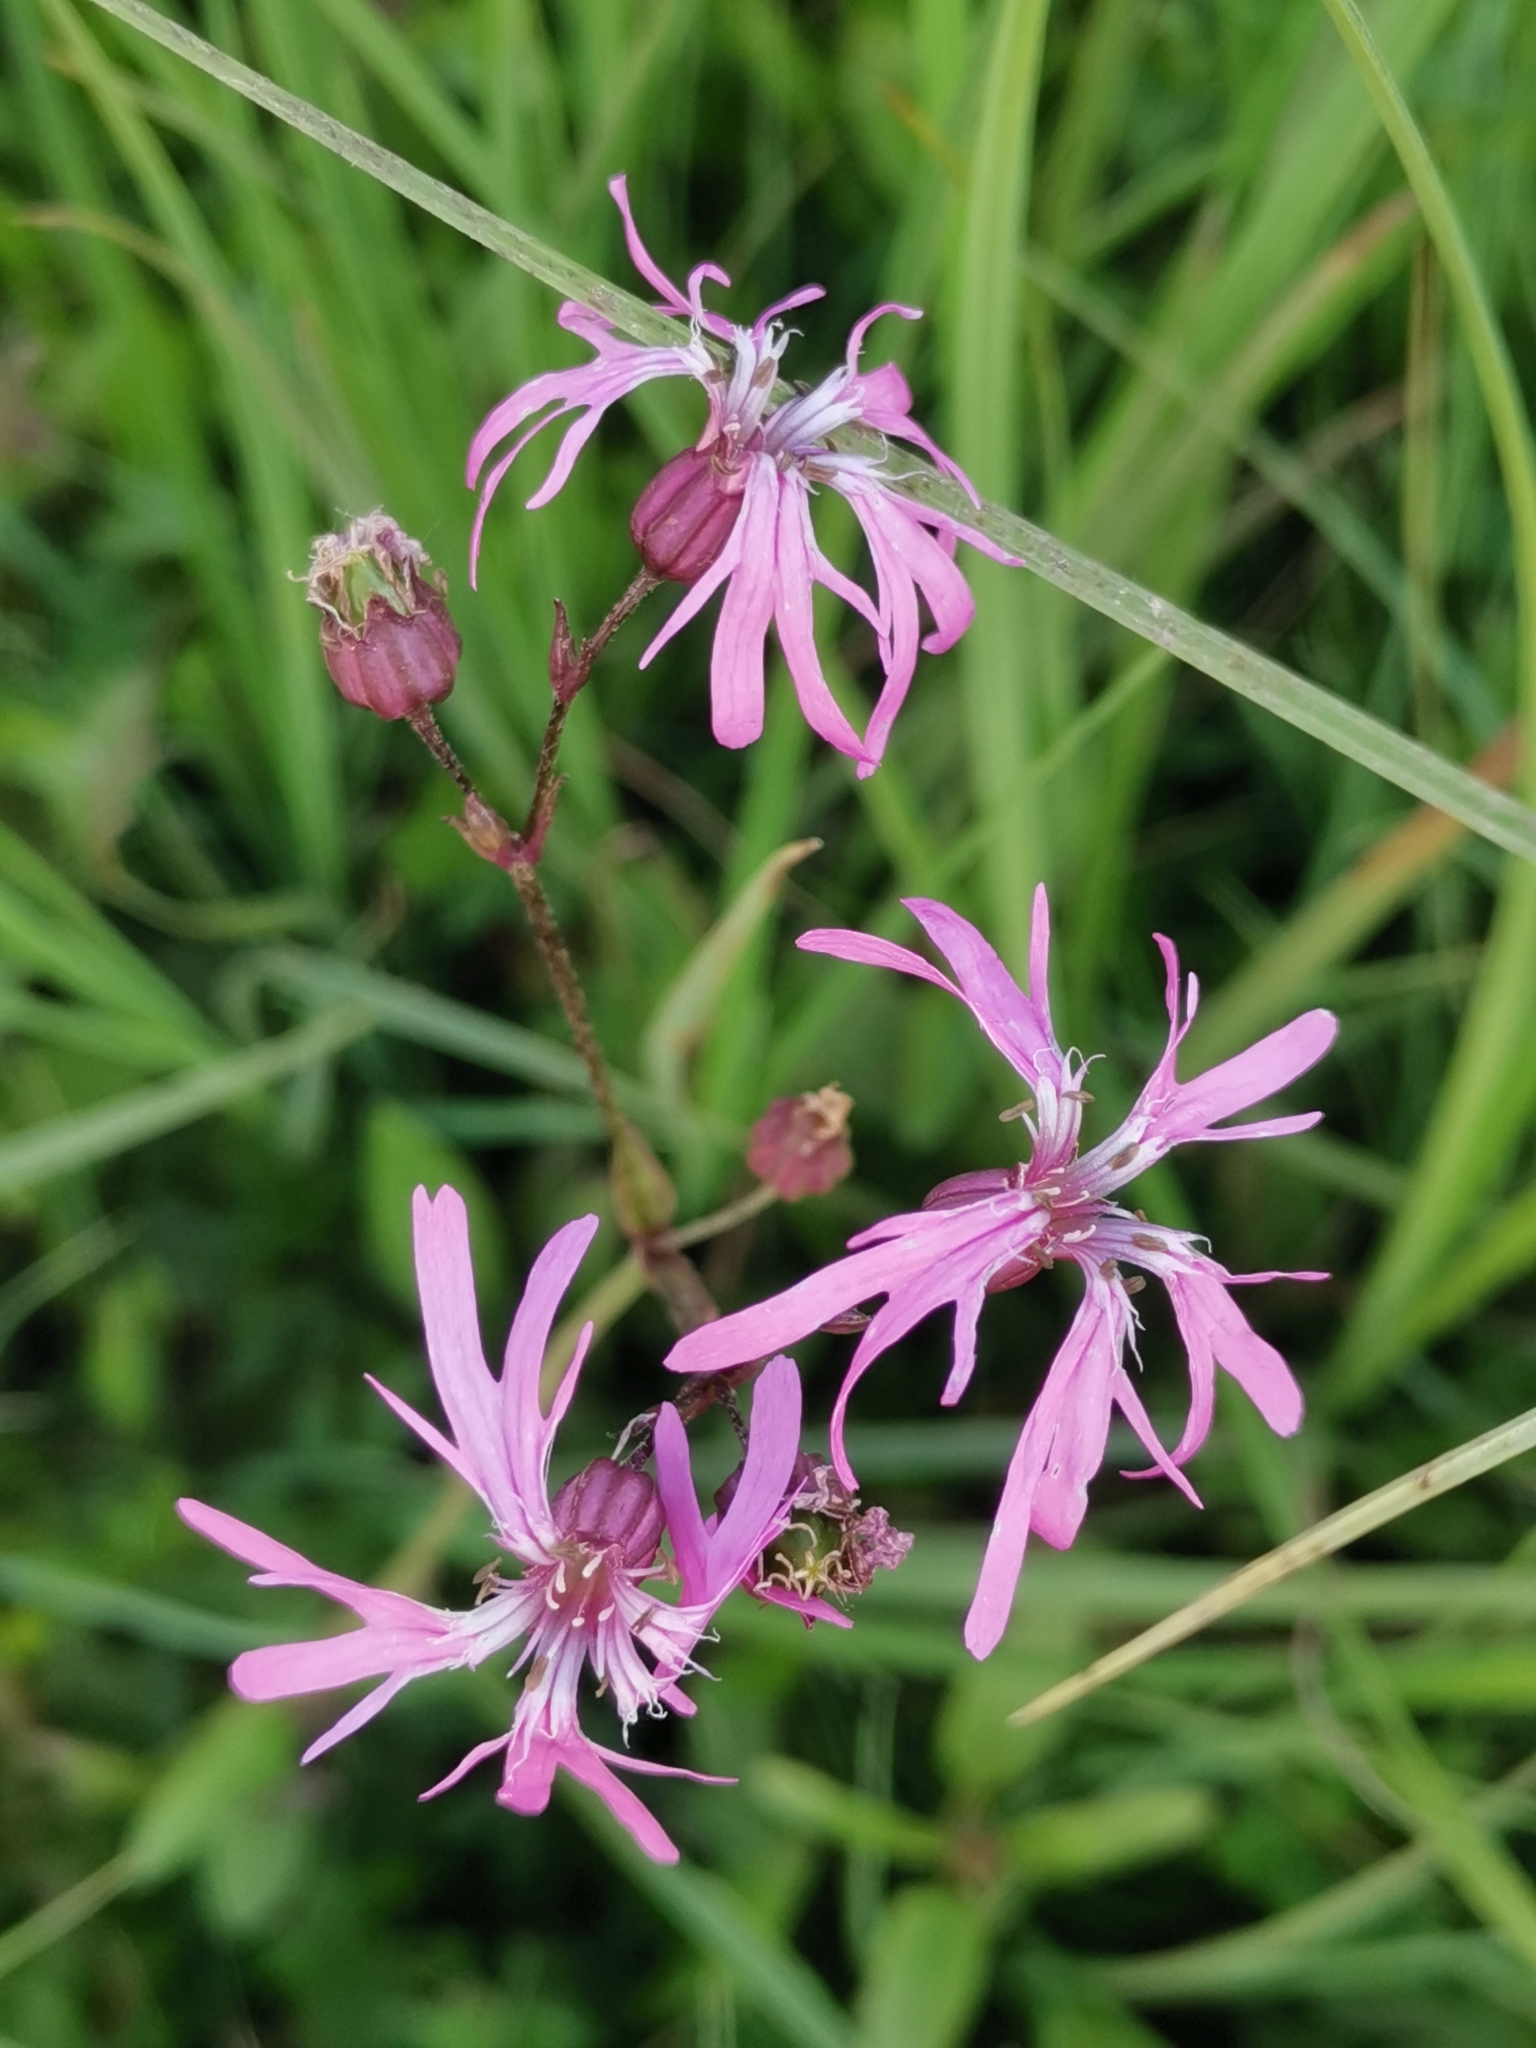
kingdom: Plantae
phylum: Tracheophyta
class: Magnoliopsida
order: Caryophyllales
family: Caryophyllaceae
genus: Silene
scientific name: Silene flos-cuculi
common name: Ragged-robin
